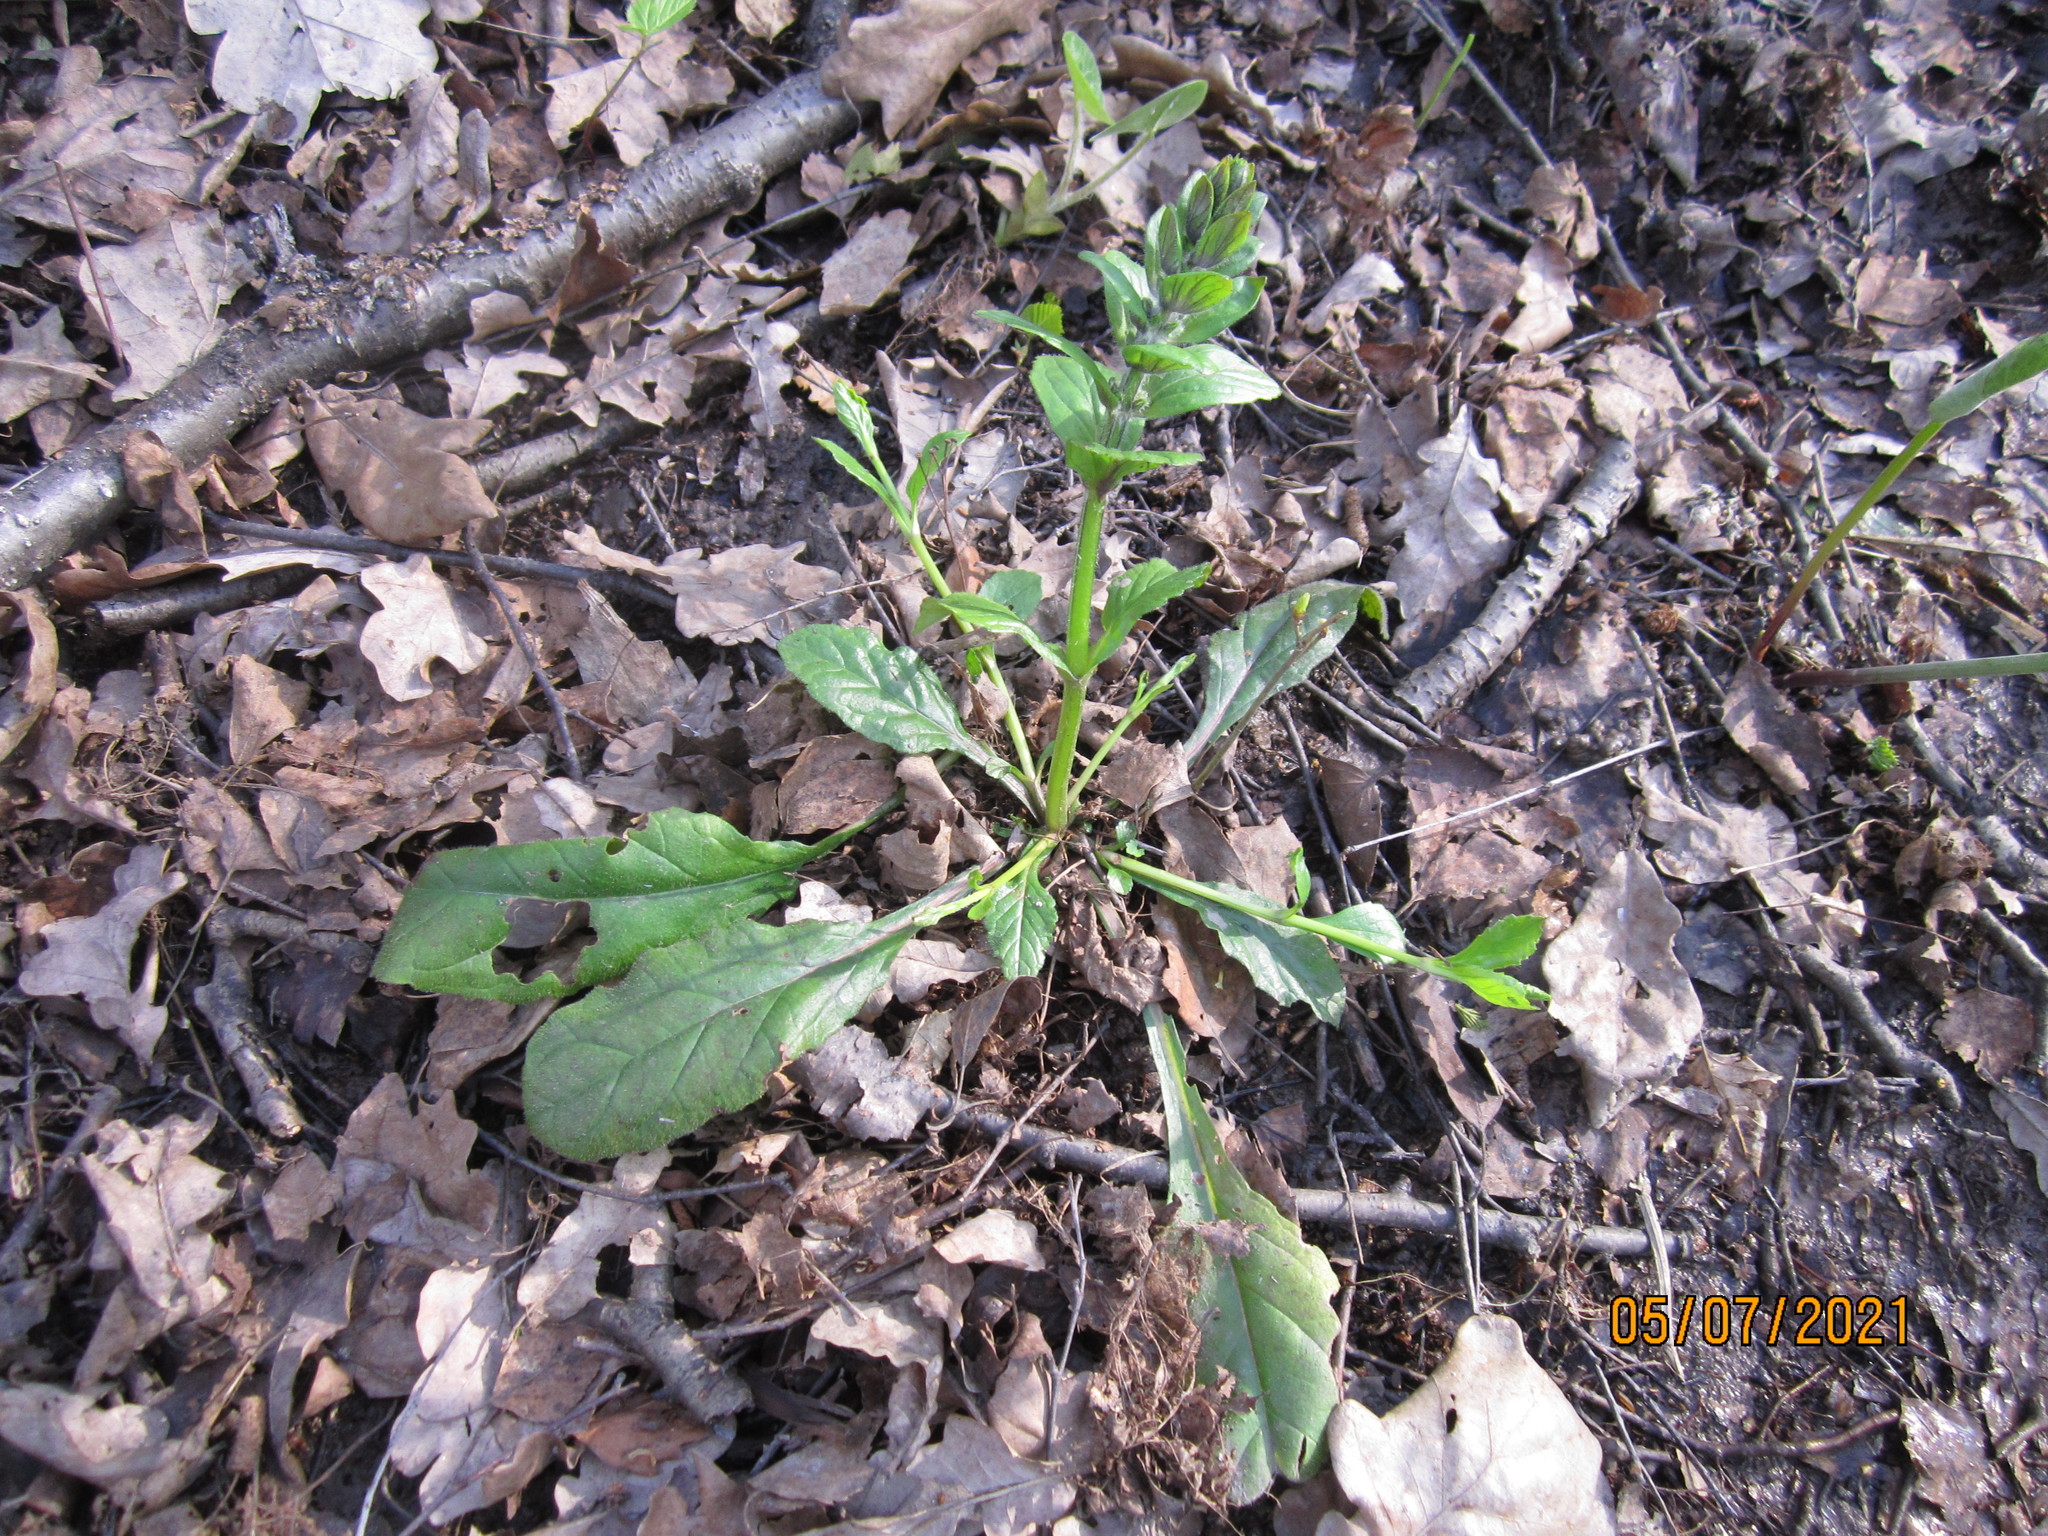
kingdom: Plantae
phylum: Tracheophyta
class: Magnoliopsida
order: Lamiales
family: Lamiaceae
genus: Ajuga
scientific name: Ajuga reptans
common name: Bugle
